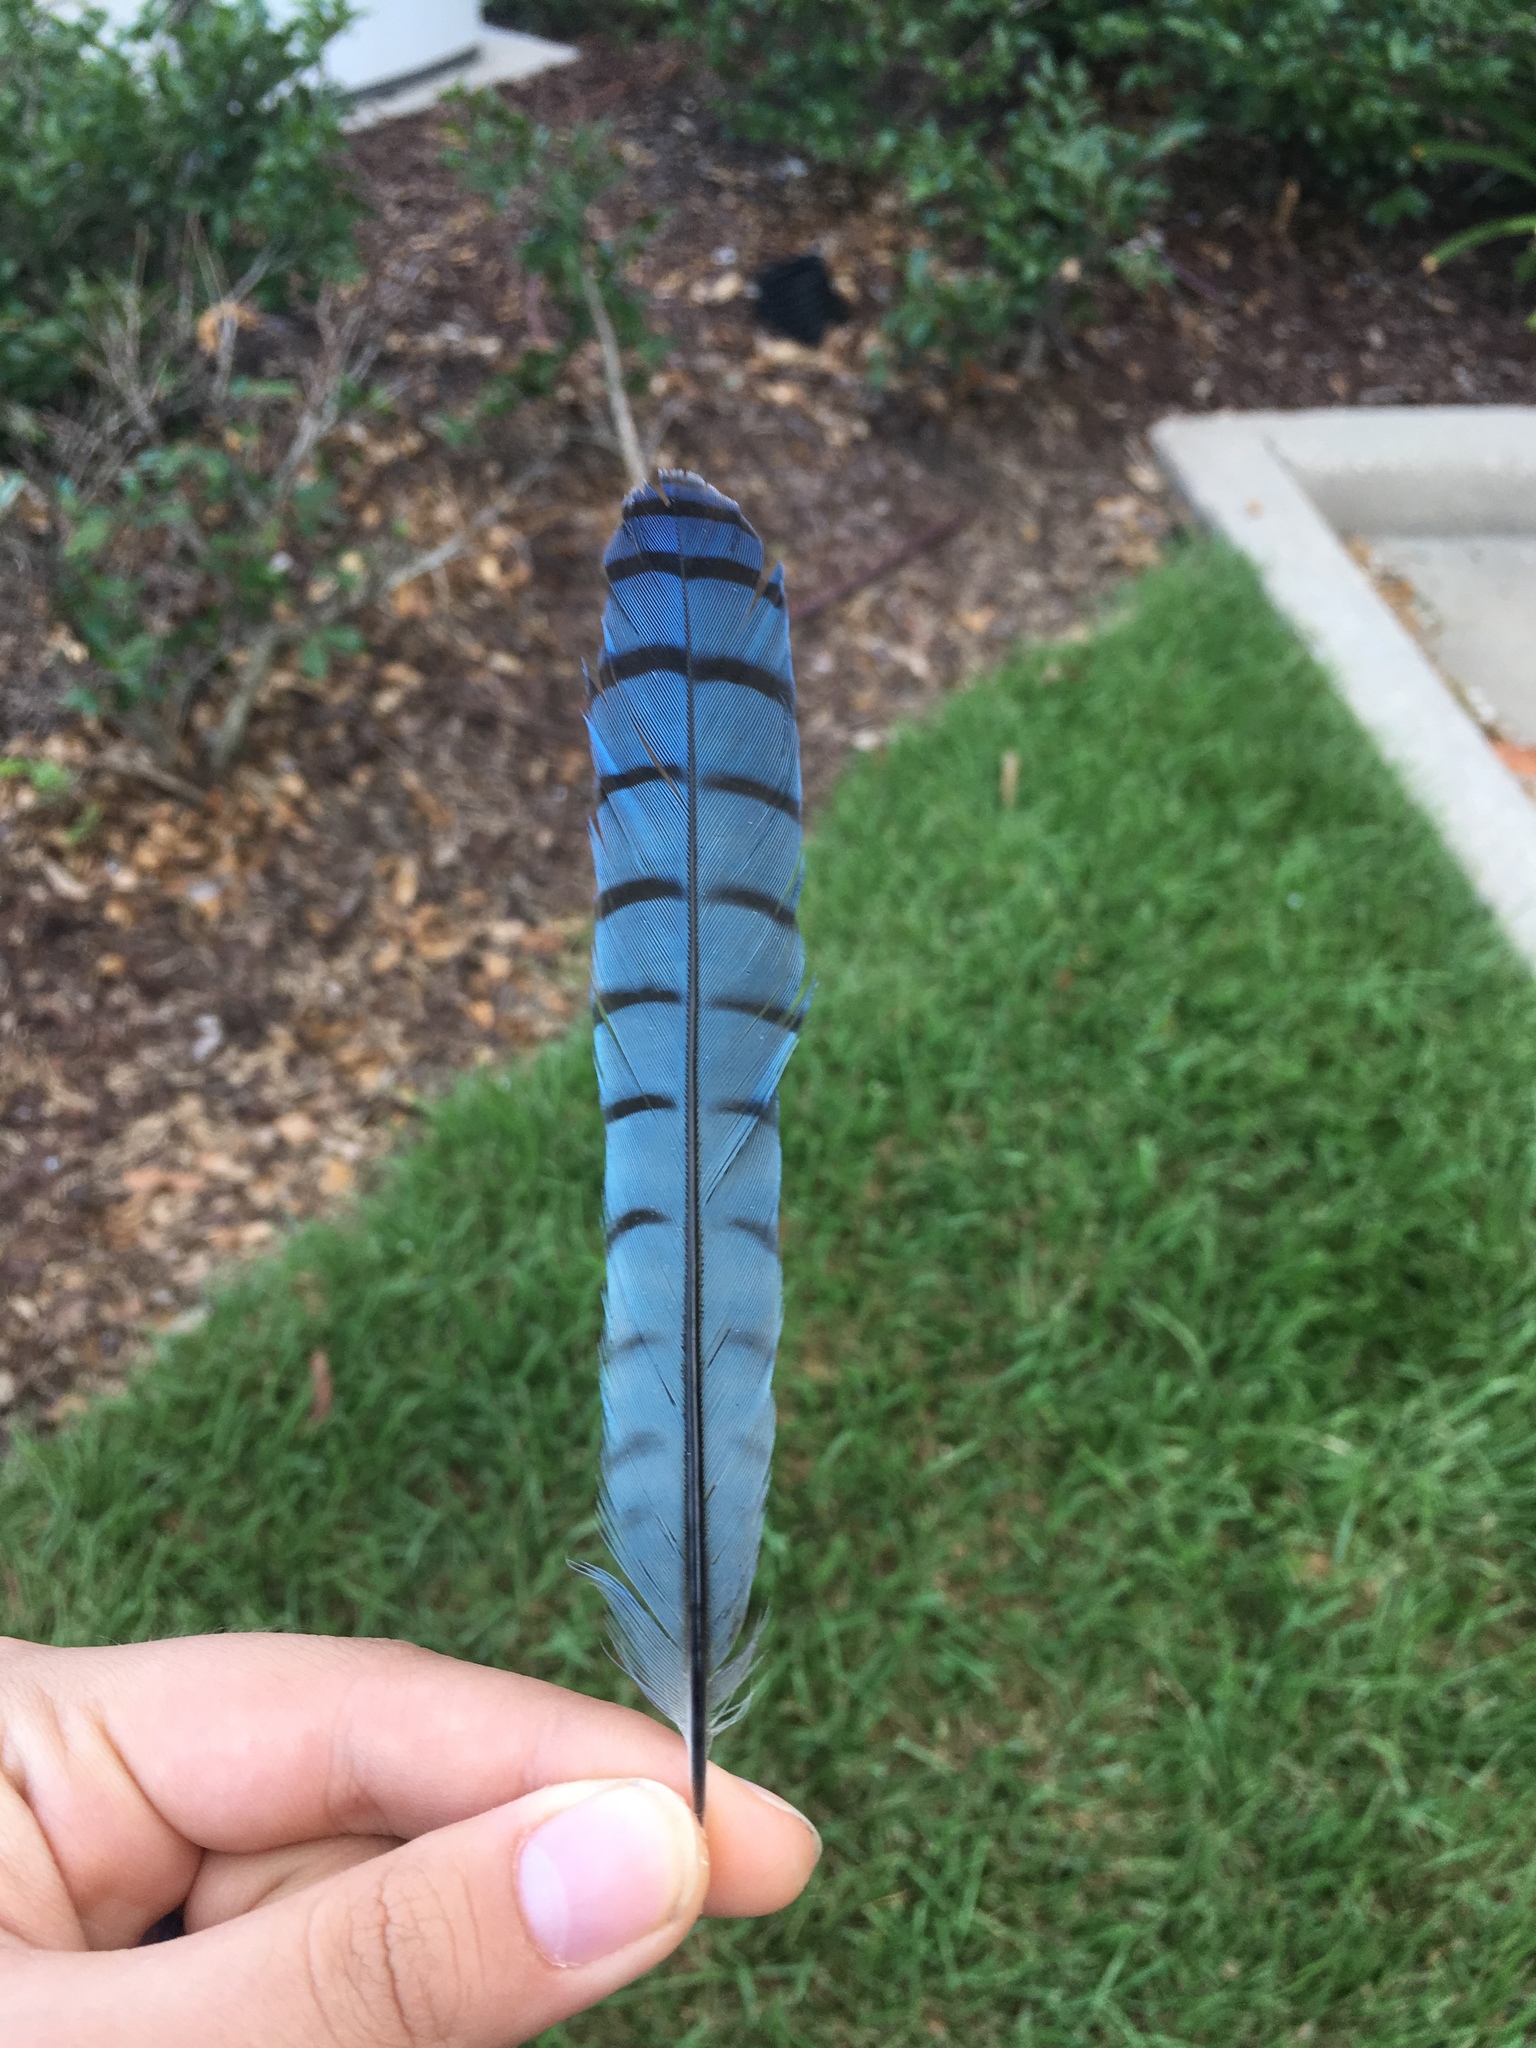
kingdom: Animalia
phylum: Chordata
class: Aves
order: Passeriformes
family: Corvidae
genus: Cyanocitta
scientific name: Cyanocitta cristata
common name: Blue jay
